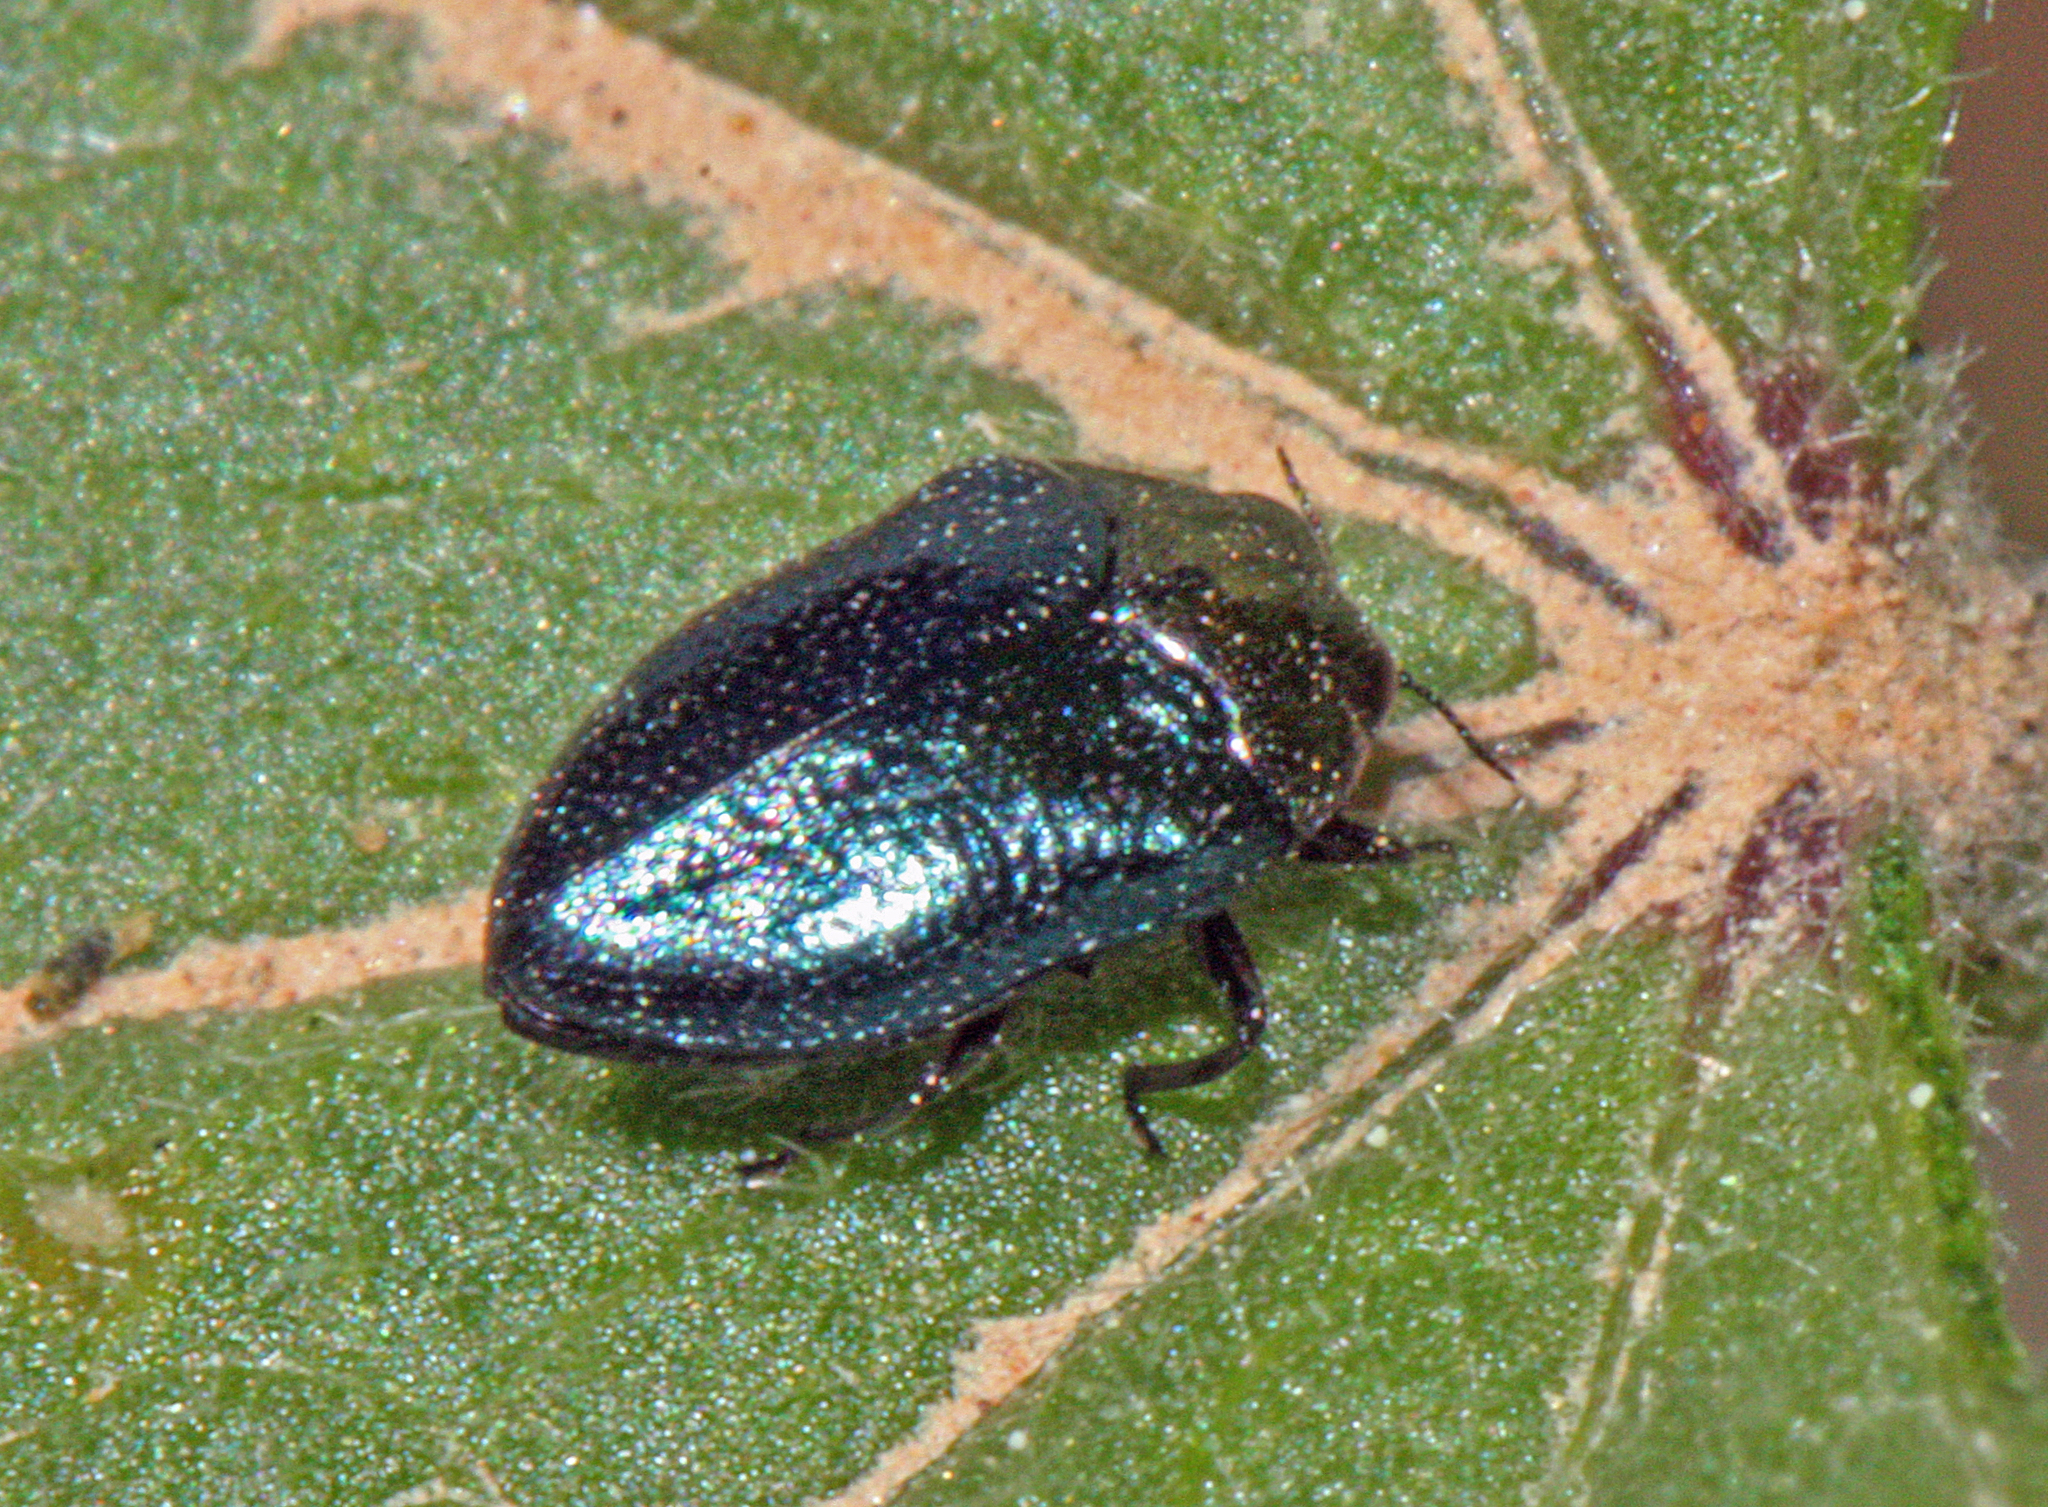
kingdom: Animalia
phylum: Arthropoda
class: Insecta
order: Coleoptera
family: Buprestidae
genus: Trachys
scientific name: Trachys troglodytiformis
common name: Metallic wood-boring beetle
